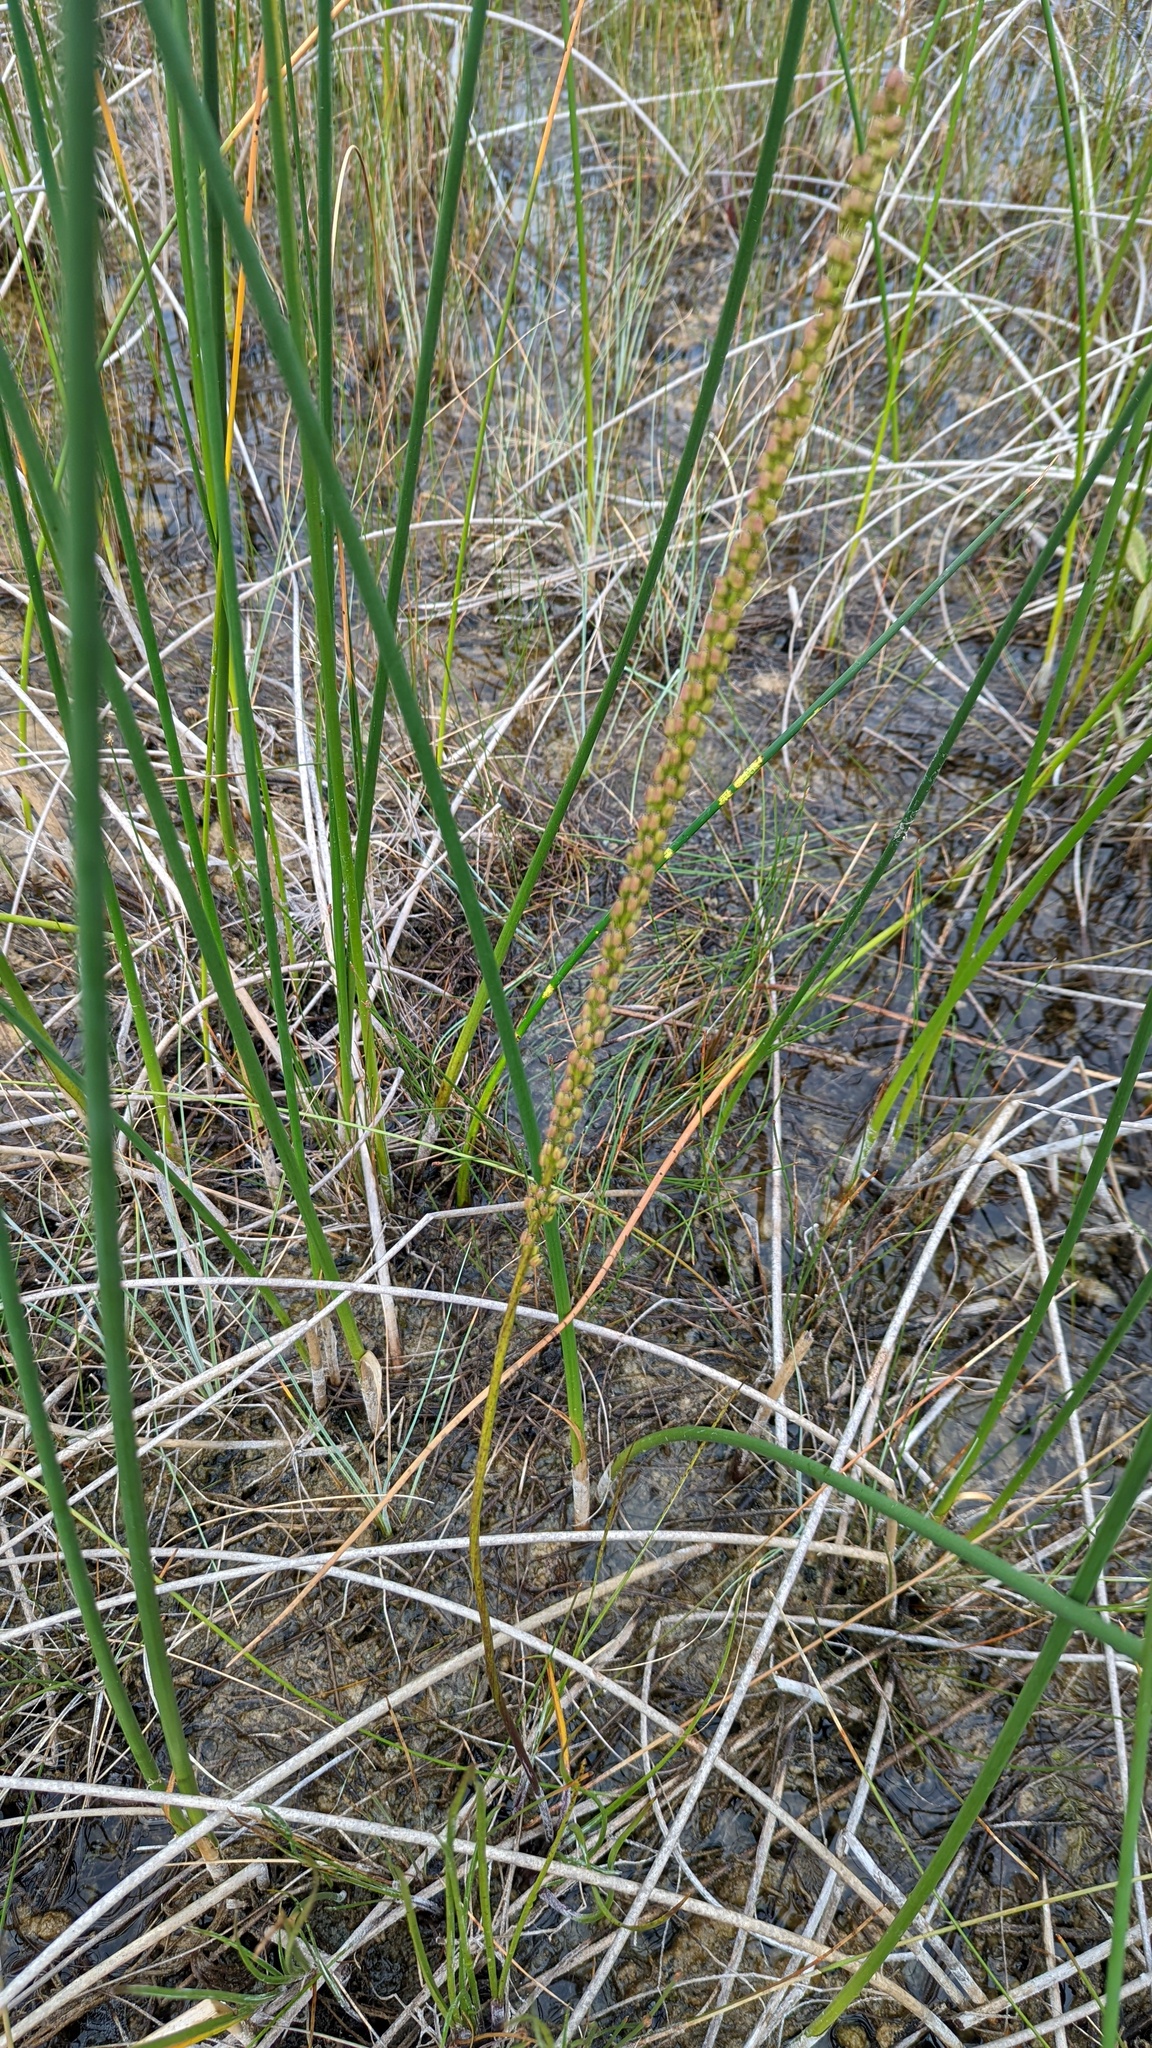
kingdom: Plantae
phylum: Tracheophyta
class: Liliopsida
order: Alismatales
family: Juncaginaceae
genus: Triglochin
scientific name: Triglochin maritima
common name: Sea arrowgrass
